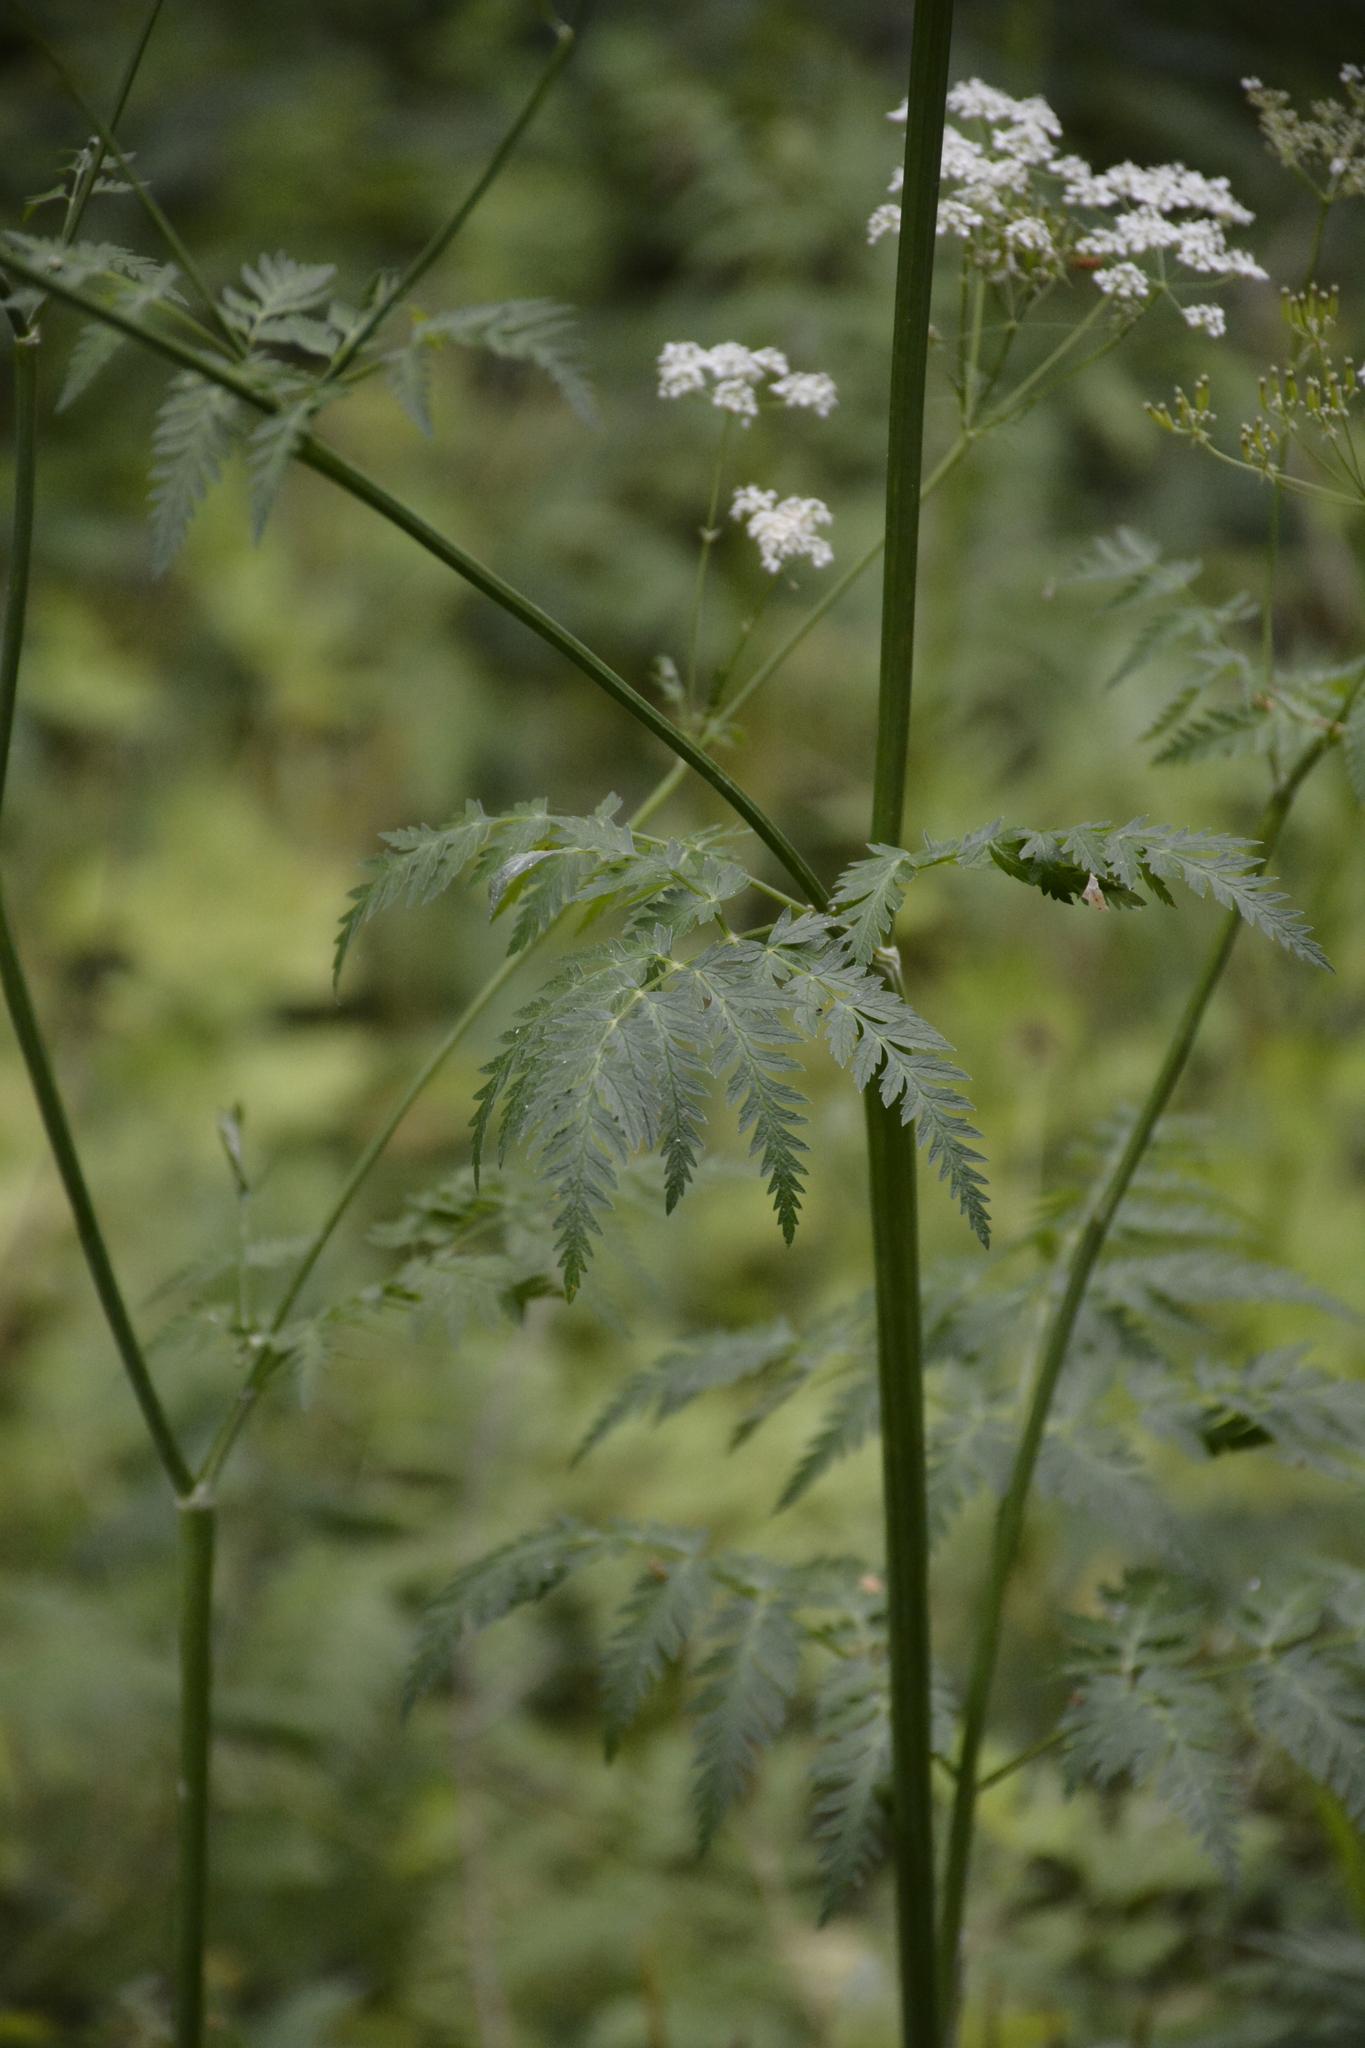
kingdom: Plantae
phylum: Tracheophyta
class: Magnoliopsida
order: Apiales
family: Apiaceae
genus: Anthriscus
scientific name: Anthriscus sylvestris
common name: Cow parsley
